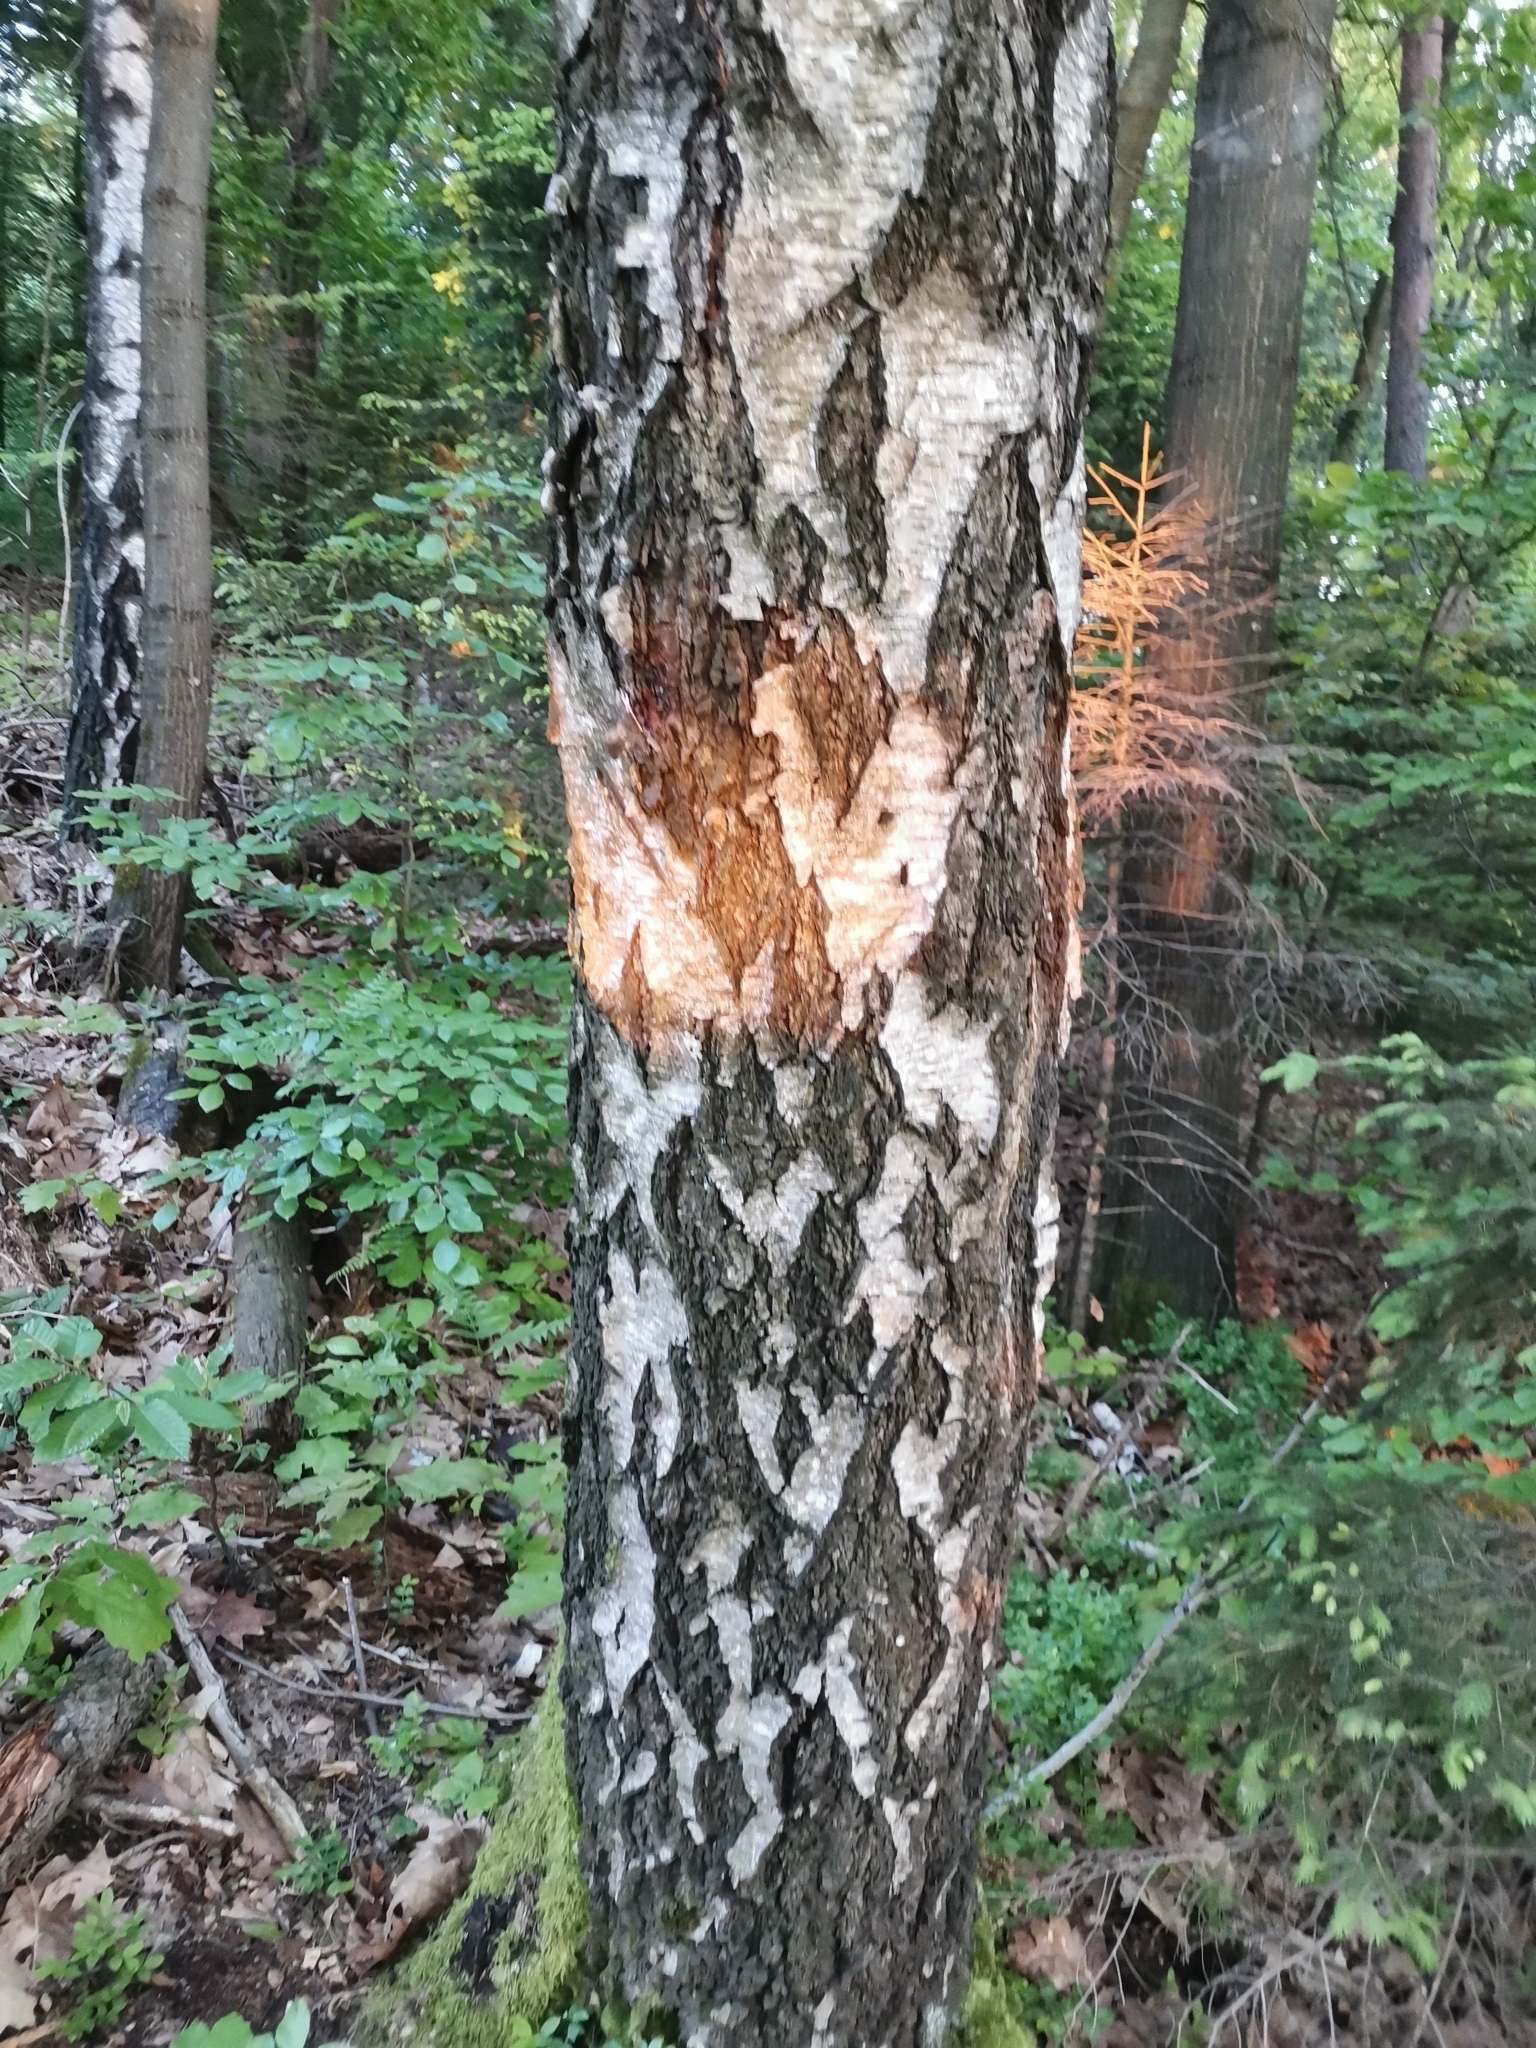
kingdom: Plantae
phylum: Tracheophyta
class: Magnoliopsida
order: Fagales
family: Betulaceae
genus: Betula
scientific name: Betula pendula
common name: Silver birch
